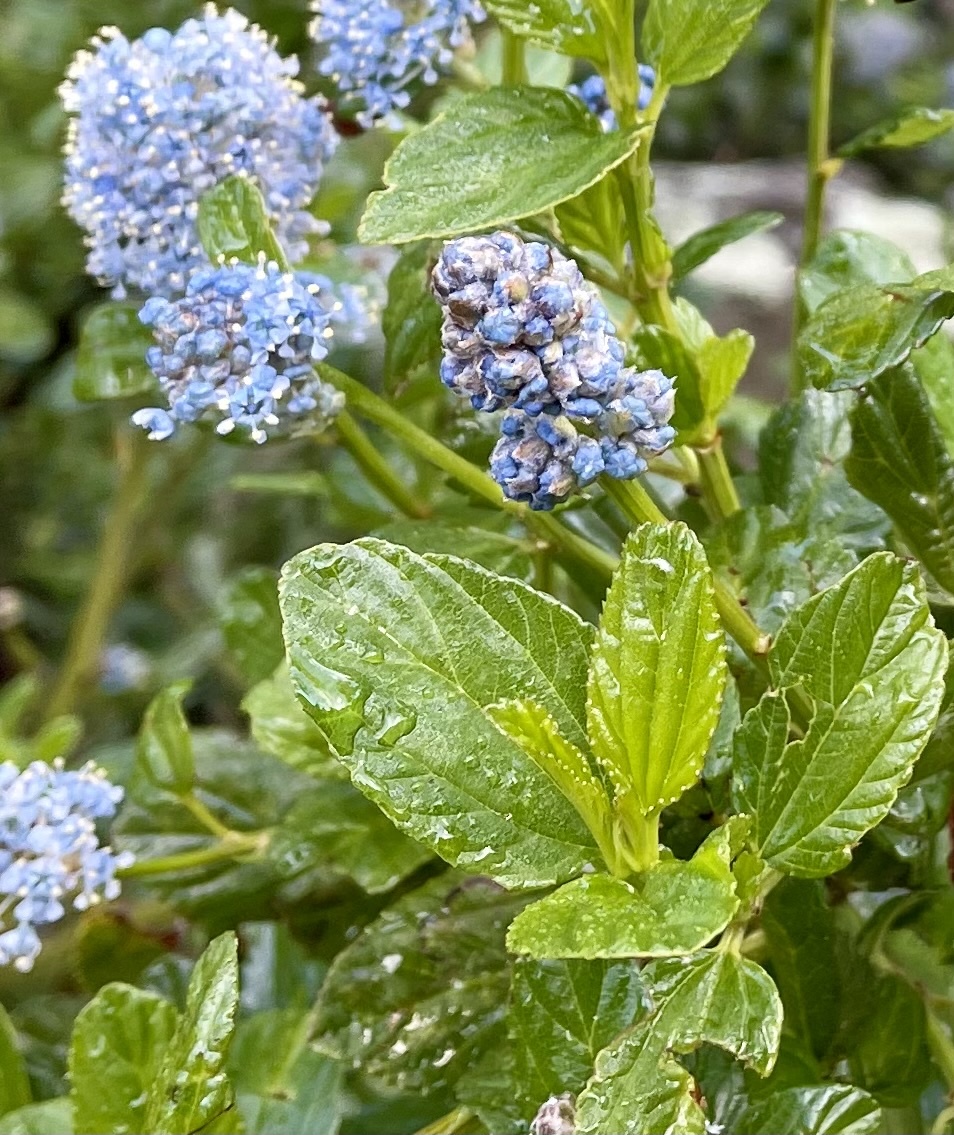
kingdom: Plantae
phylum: Tracheophyta
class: Magnoliopsida
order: Rosales
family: Rhamnaceae
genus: Ceanothus
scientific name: Ceanothus thyrsiflorus
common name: California-lilac
